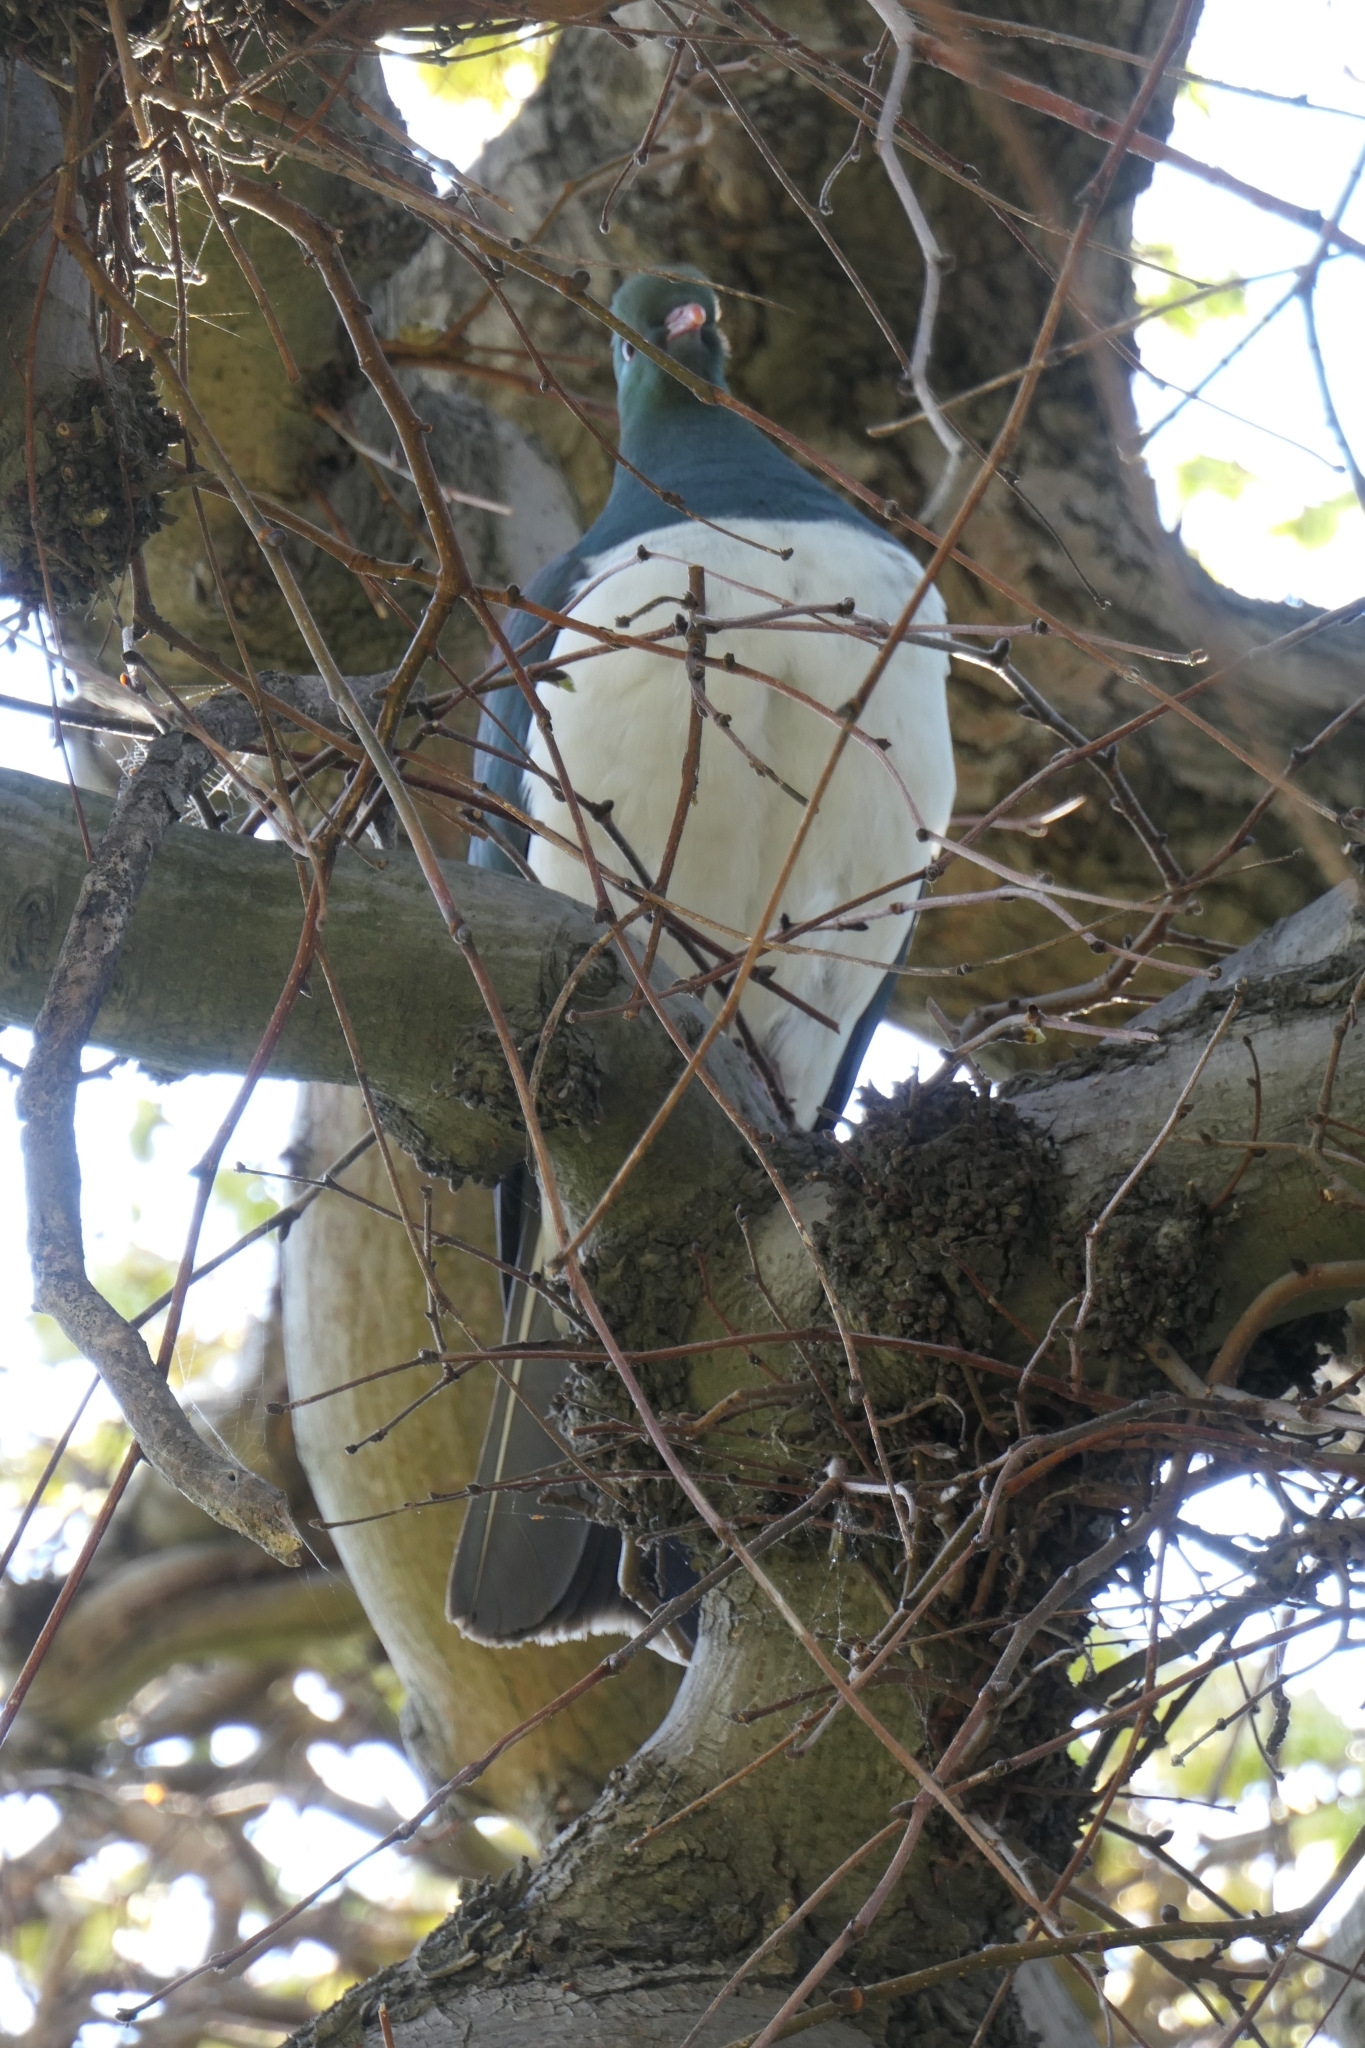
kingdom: Animalia
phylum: Chordata
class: Aves
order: Columbiformes
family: Columbidae
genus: Hemiphaga
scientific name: Hemiphaga novaeseelandiae
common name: New zealand pigeon
